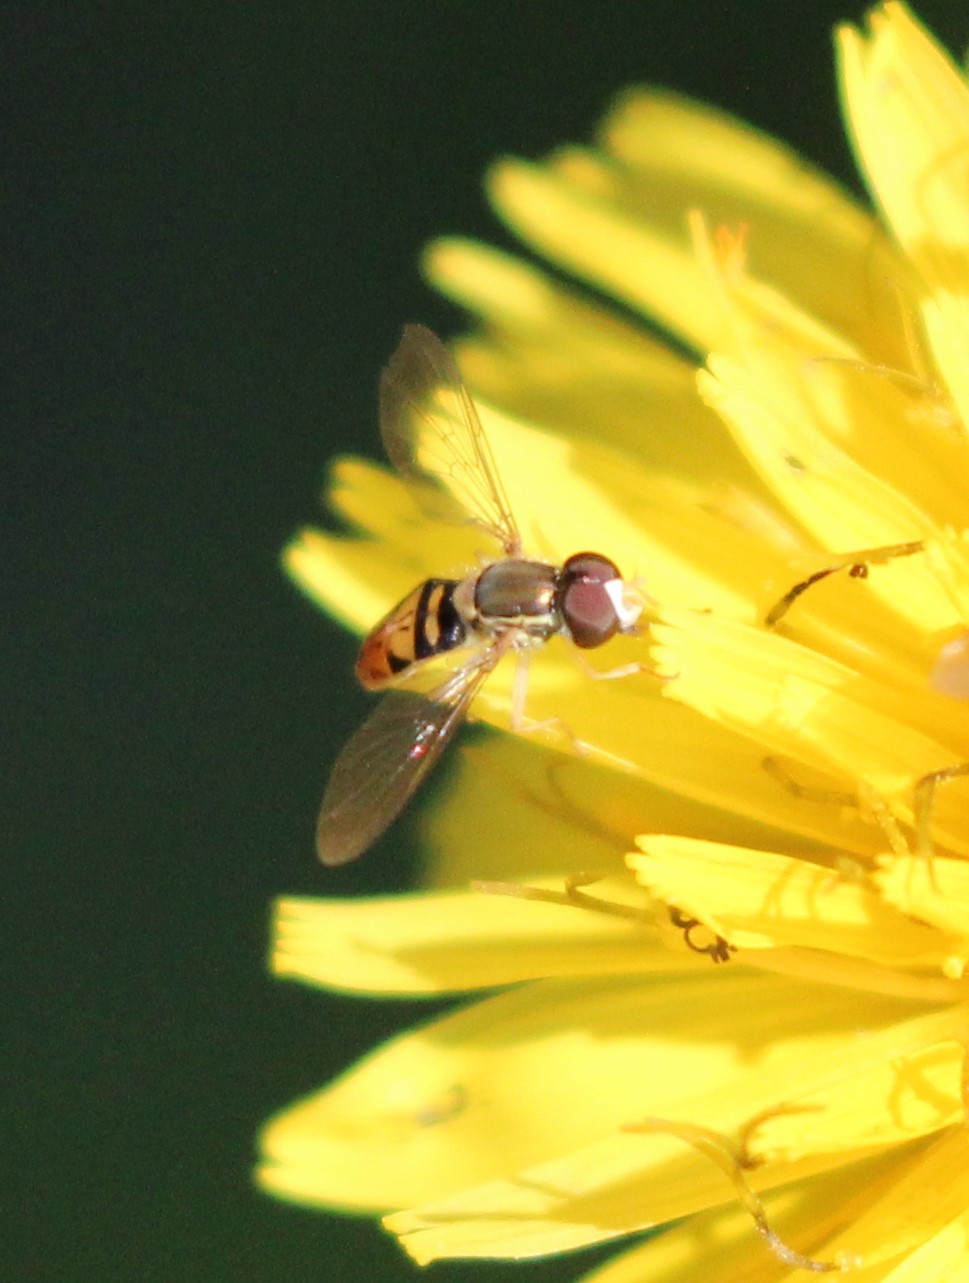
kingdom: Animalia
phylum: Arthropoda
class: Insecta
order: Diptera
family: Syrphidae
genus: Toxomerus
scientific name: Toxomerus marginatus
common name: Syrphid fly
